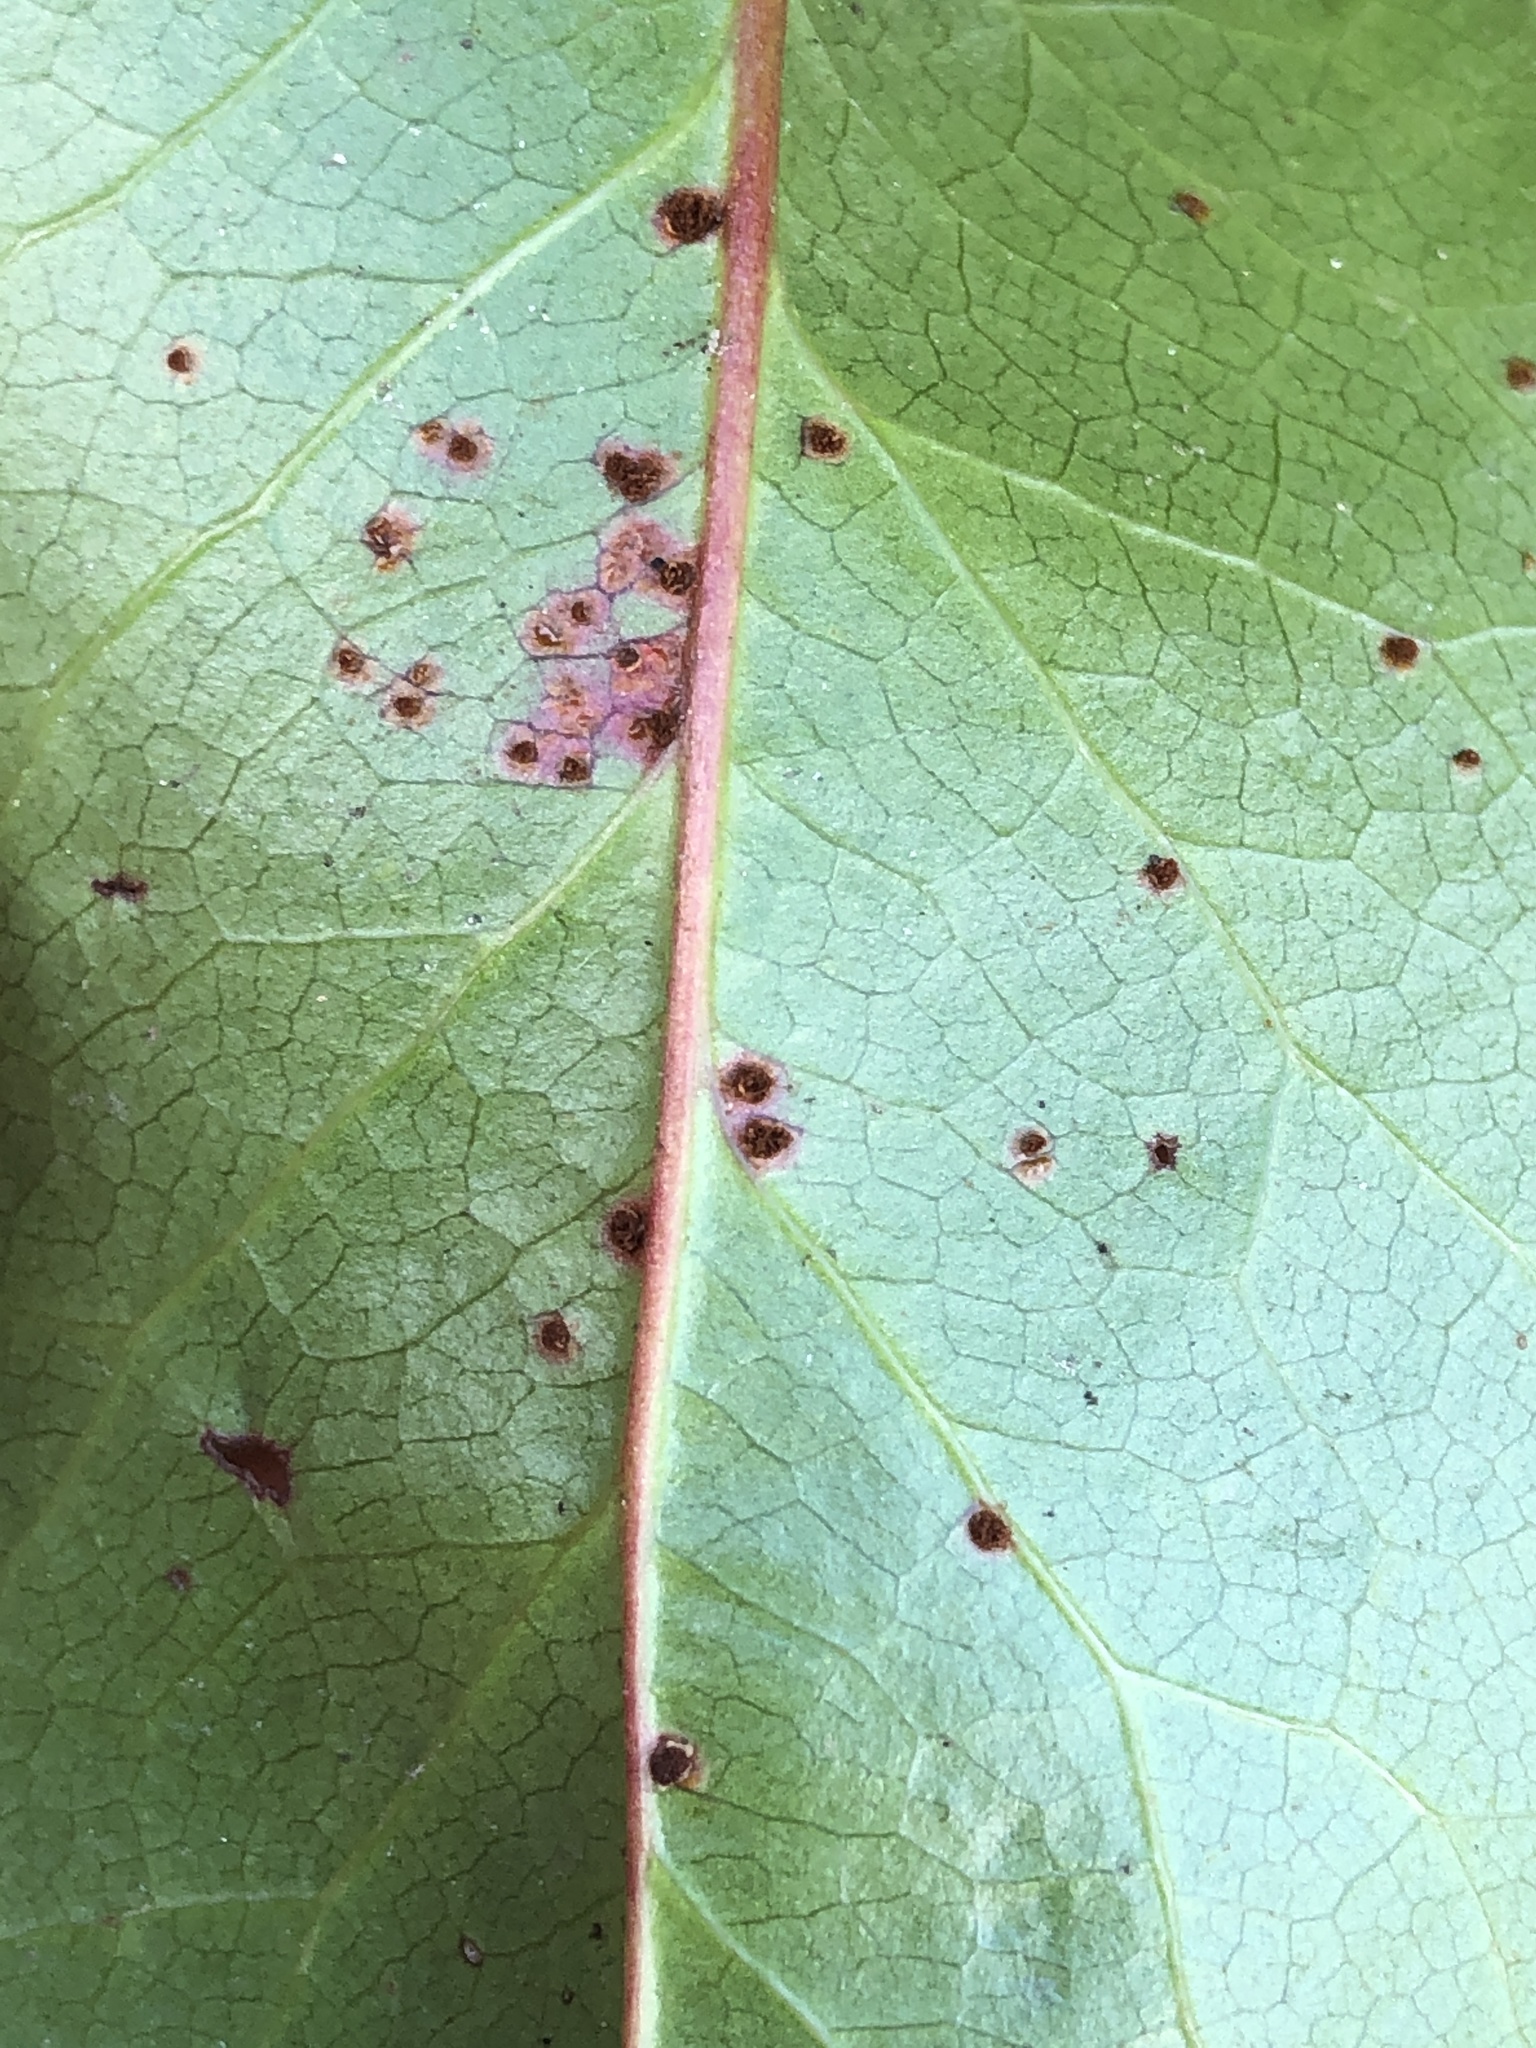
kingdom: Fungi
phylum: Basidiomycota
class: Pucciniomycetes
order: Pucciniales
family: Pucciniaceae
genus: Cumminsiella
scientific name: Cumminsiella mirabilissima
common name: Mahonia rust
